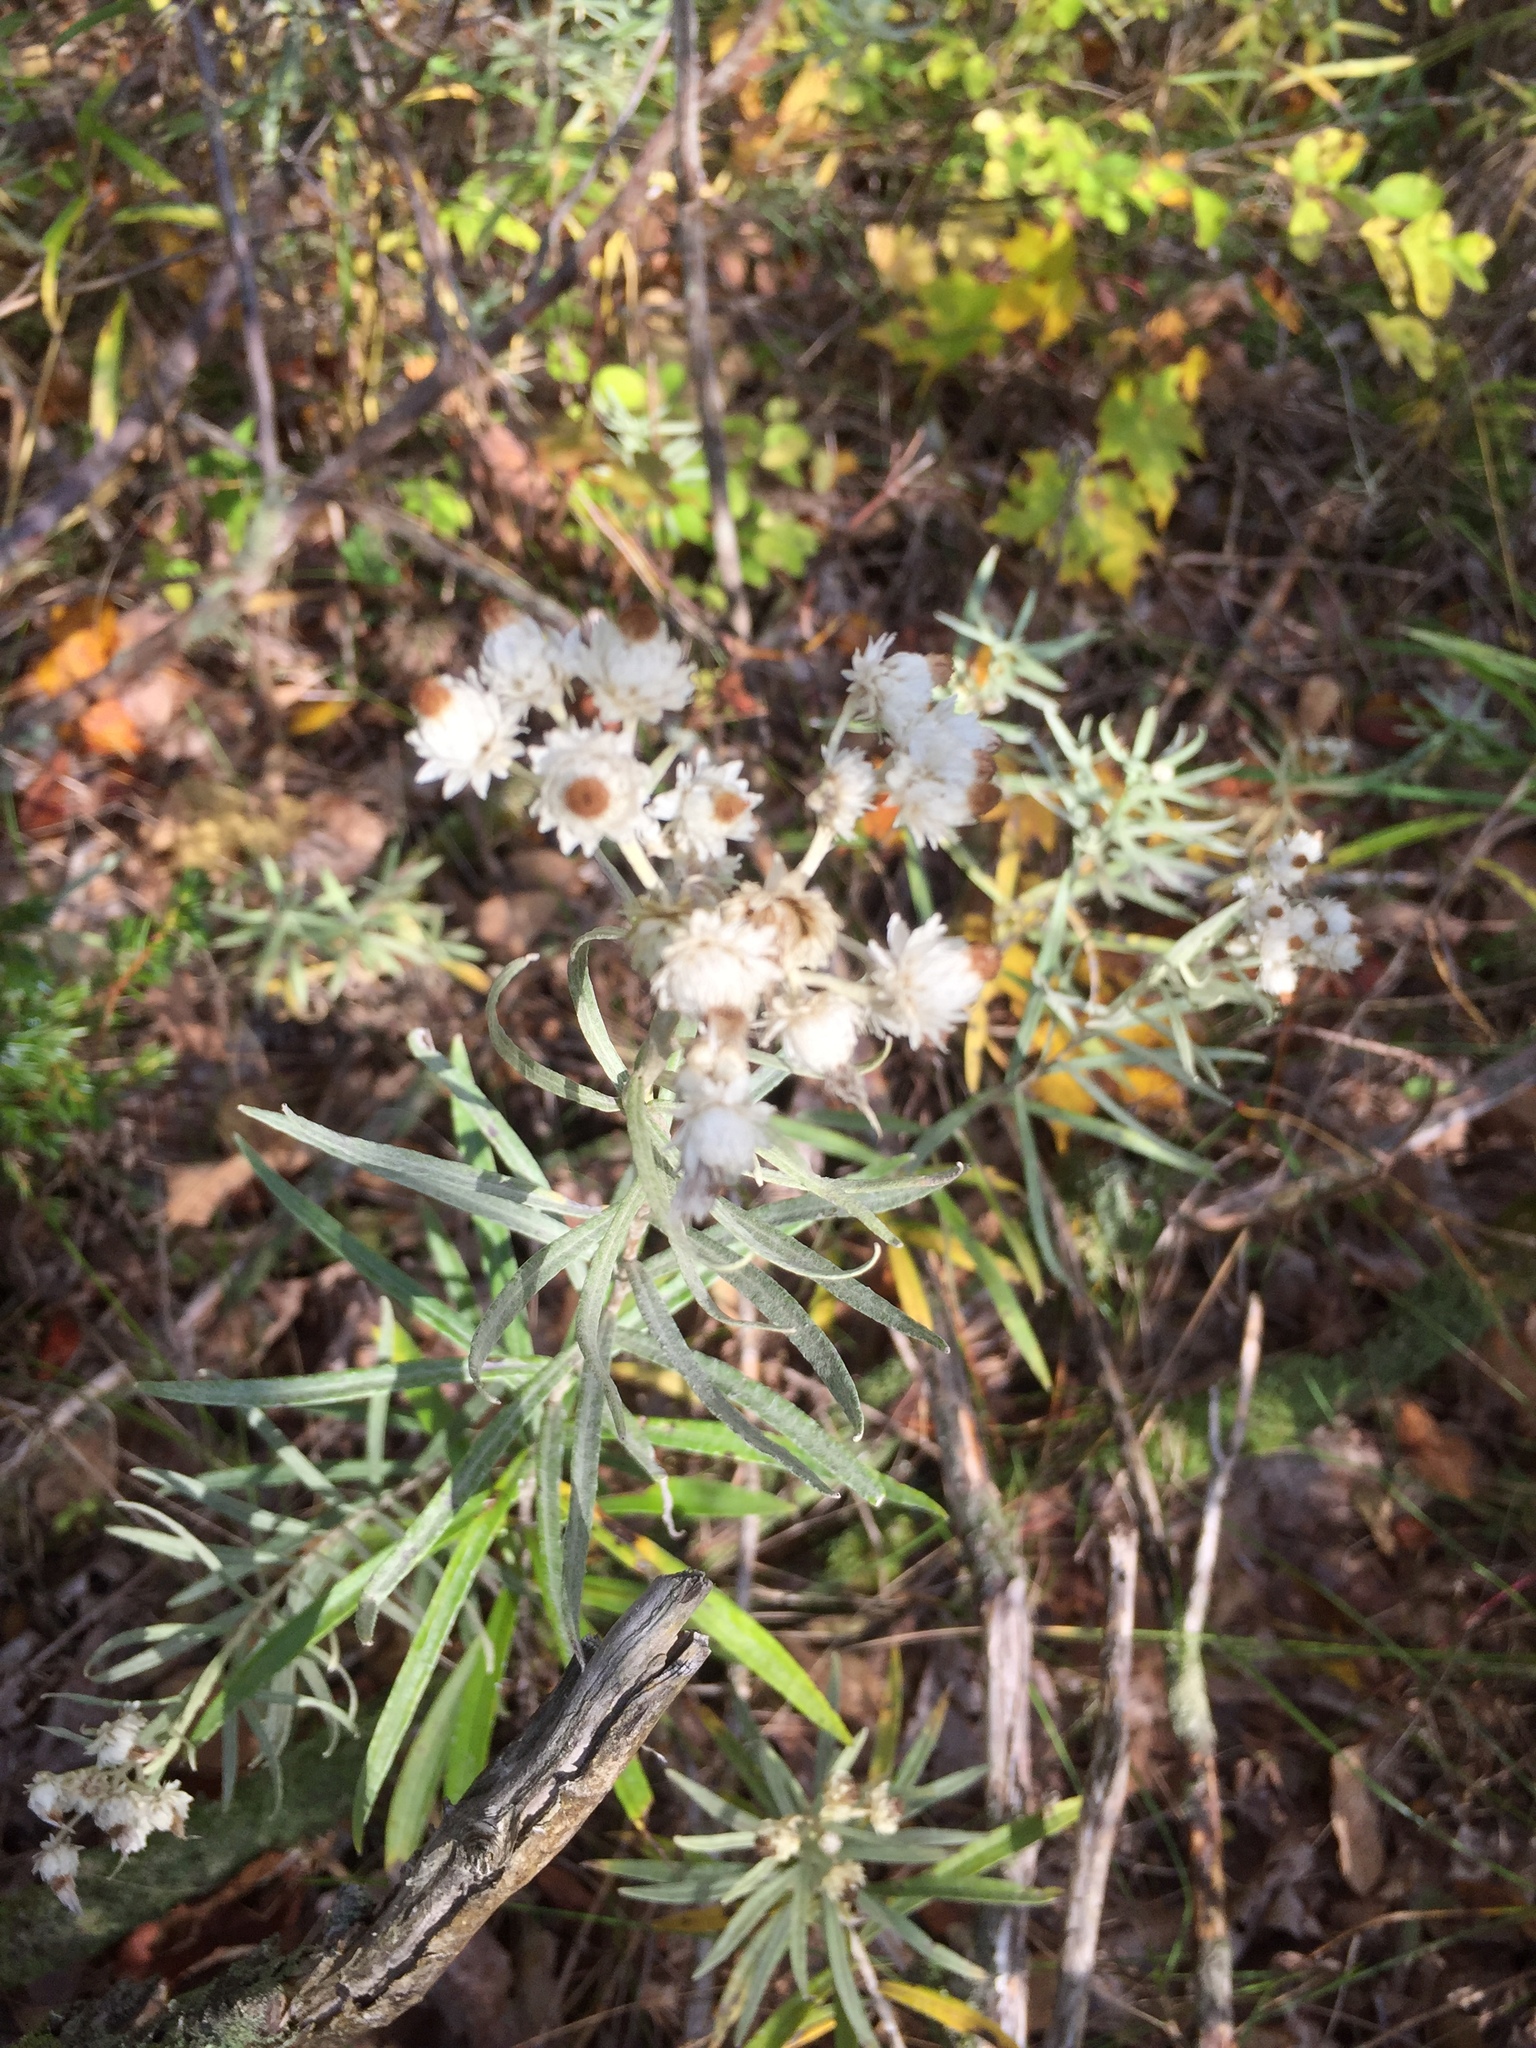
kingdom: Plantae
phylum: Tracheophyta
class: Magnoliopsida
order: Asterales
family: Asteraceae
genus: Anaphalis
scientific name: Anaphalis margaritacea
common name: Pearly everlasting
